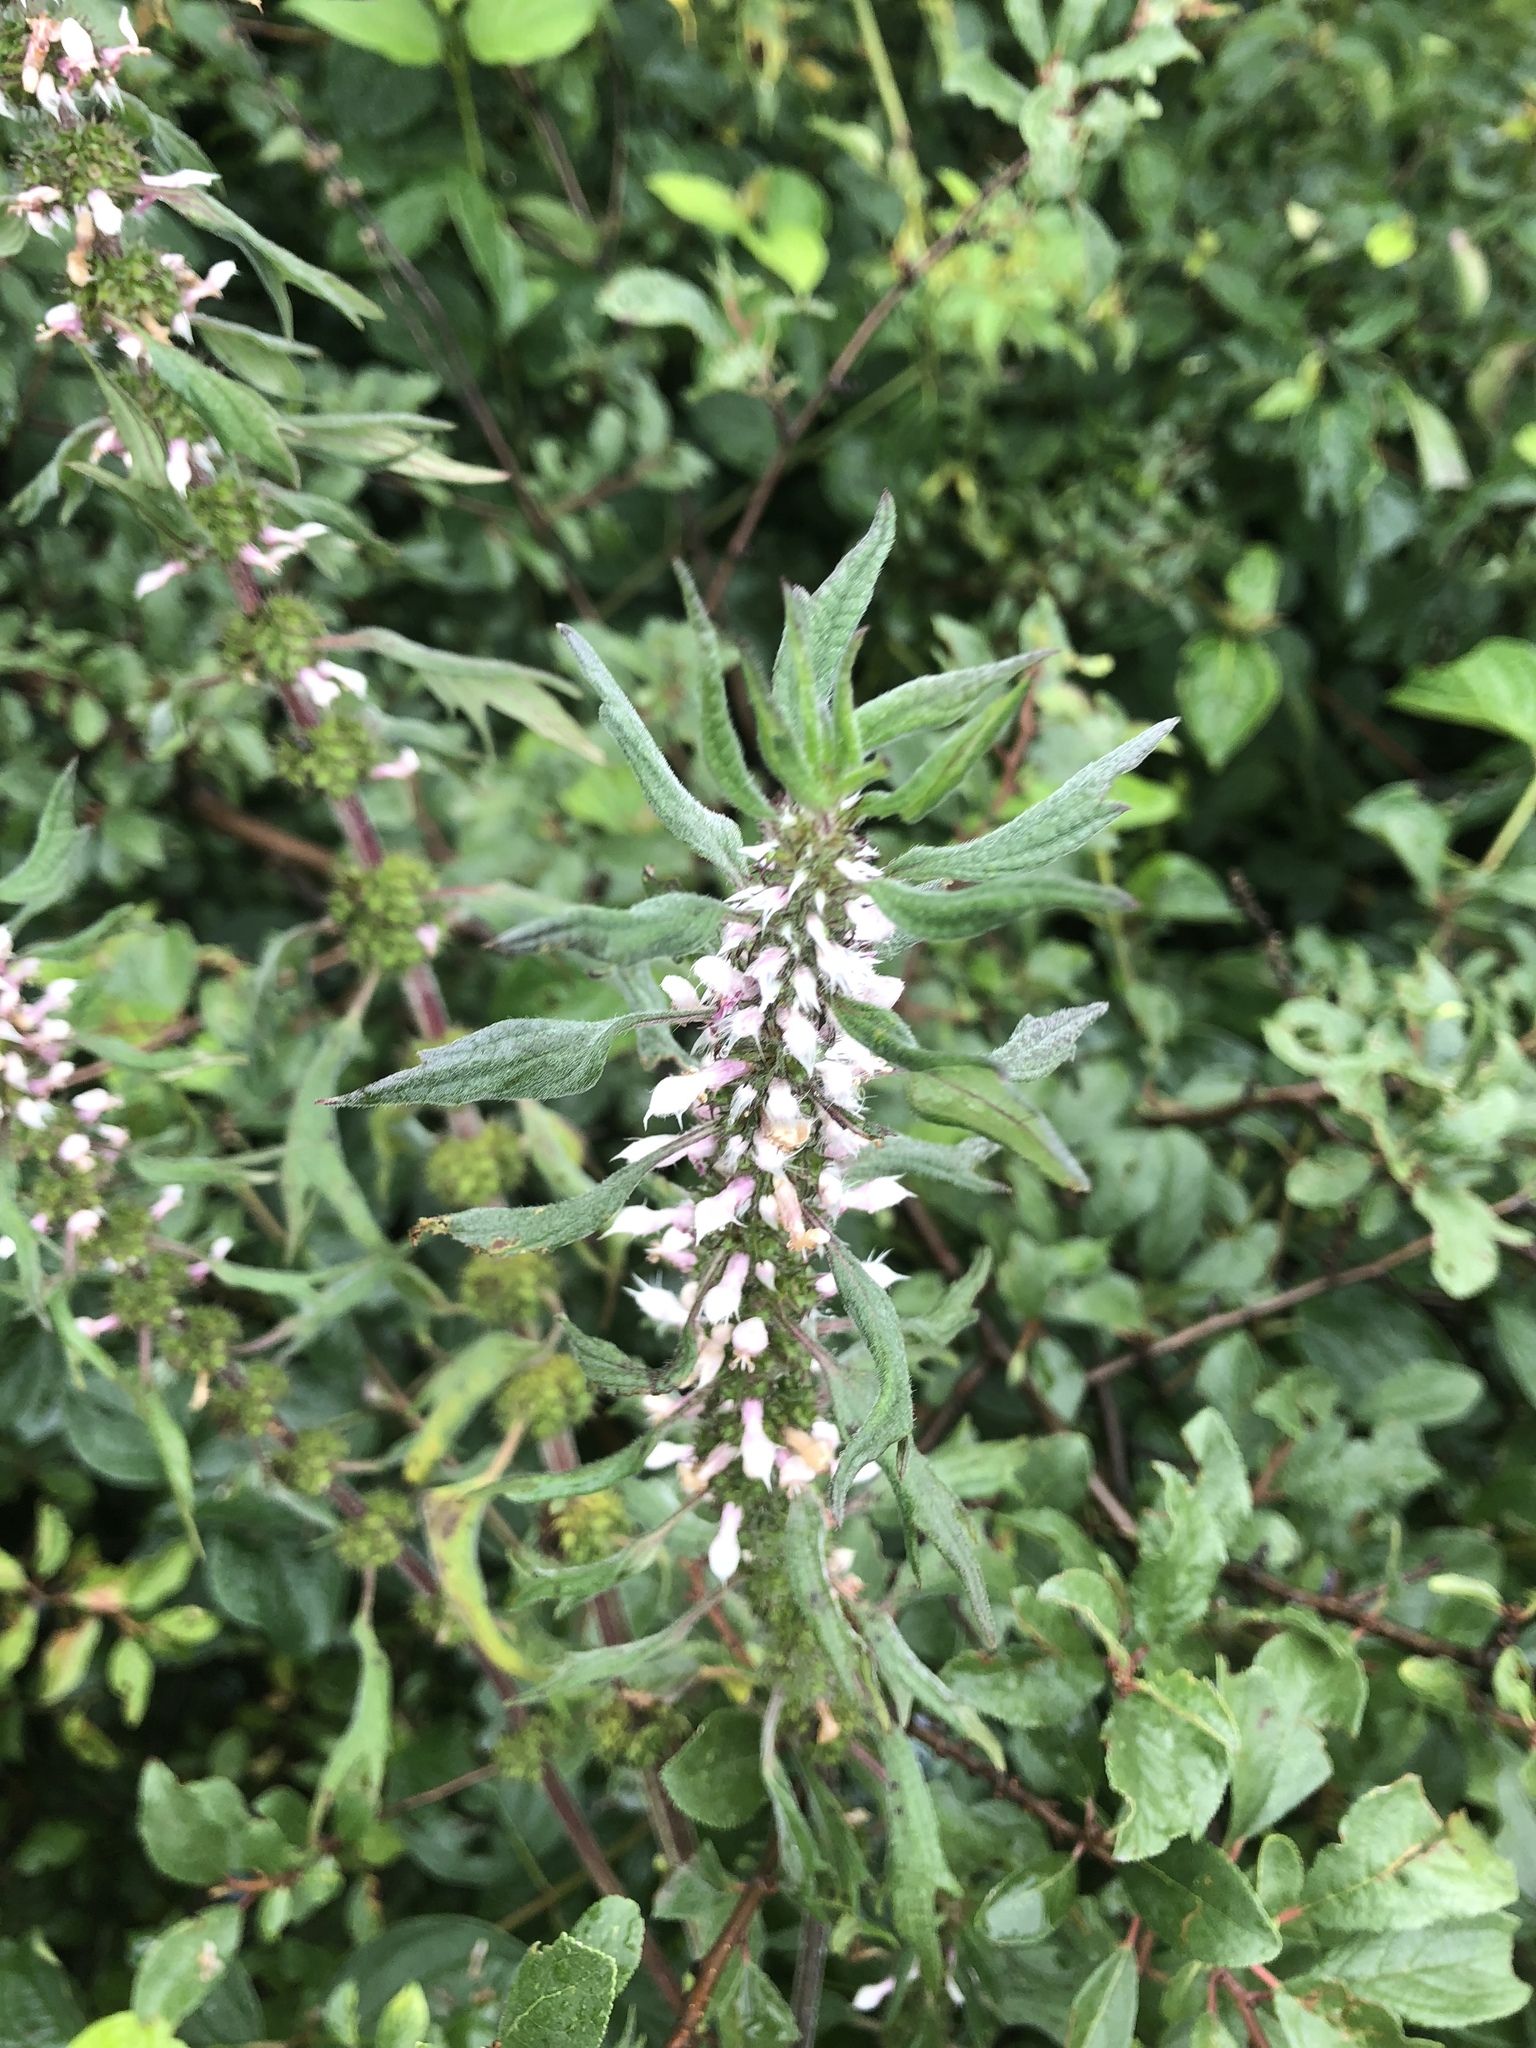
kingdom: Plantae
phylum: Tracheophyta
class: Magnoliopsida
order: Lamiales
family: Lamiaceae
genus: Leonurus
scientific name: Leonurus cardiaca
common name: Motherwort
